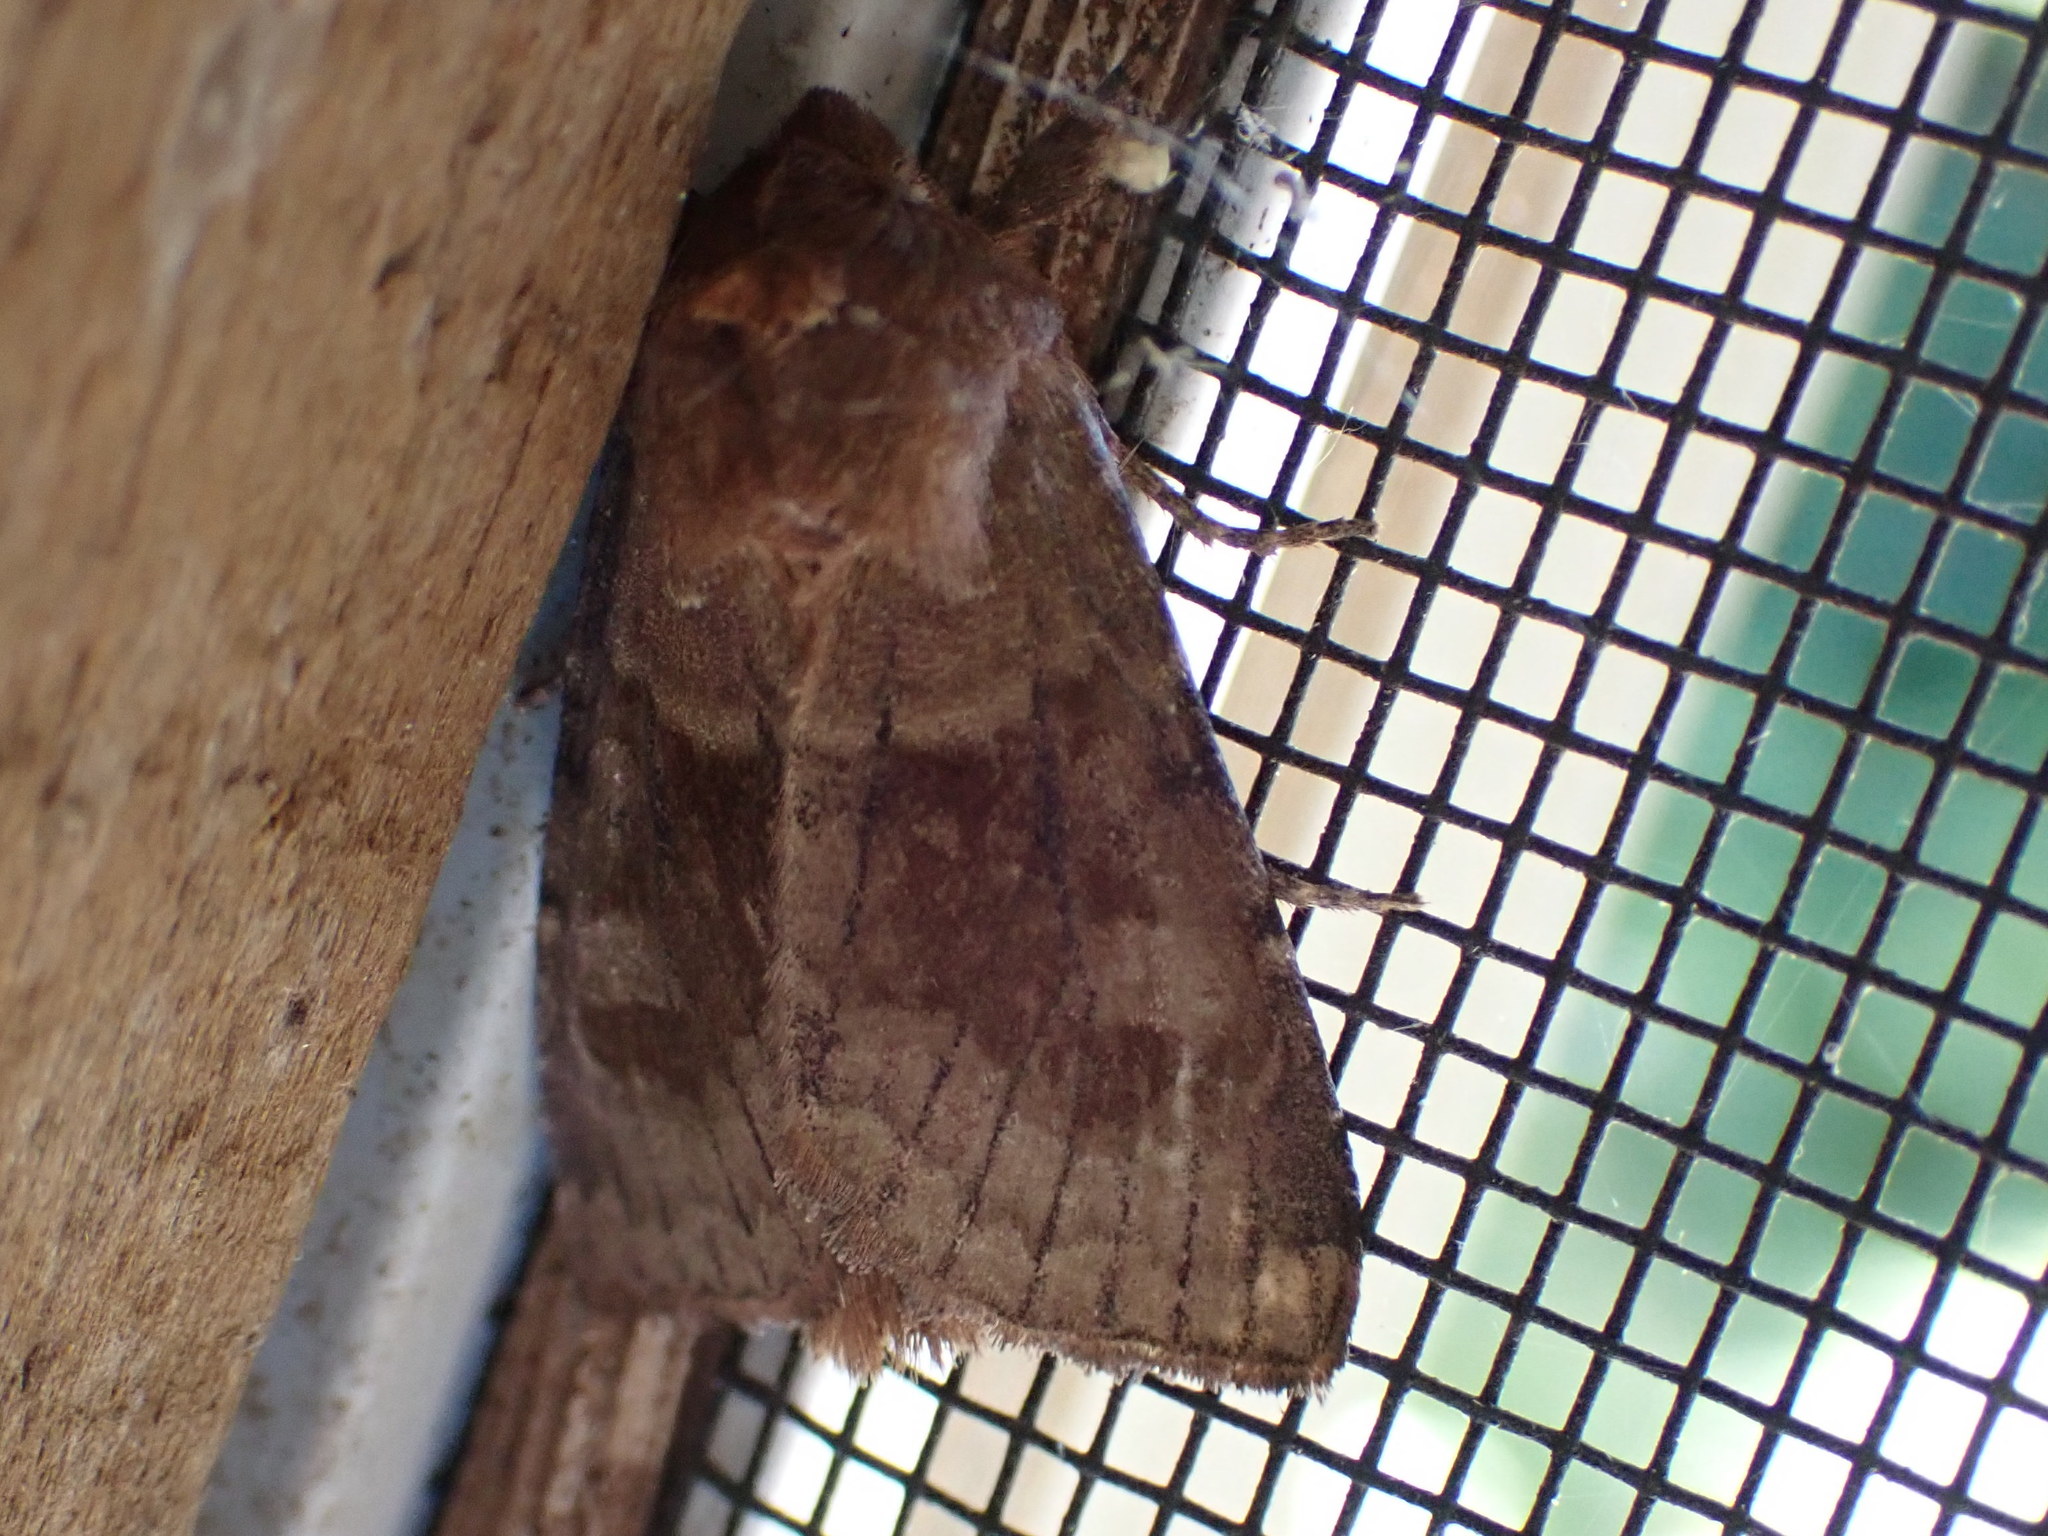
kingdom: Animalia
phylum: Arthropoda
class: Insecta
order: Lepidoptera
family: Noctuidae
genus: Nephelodes
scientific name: Nephelodes minians
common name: Bronzed cutworm
